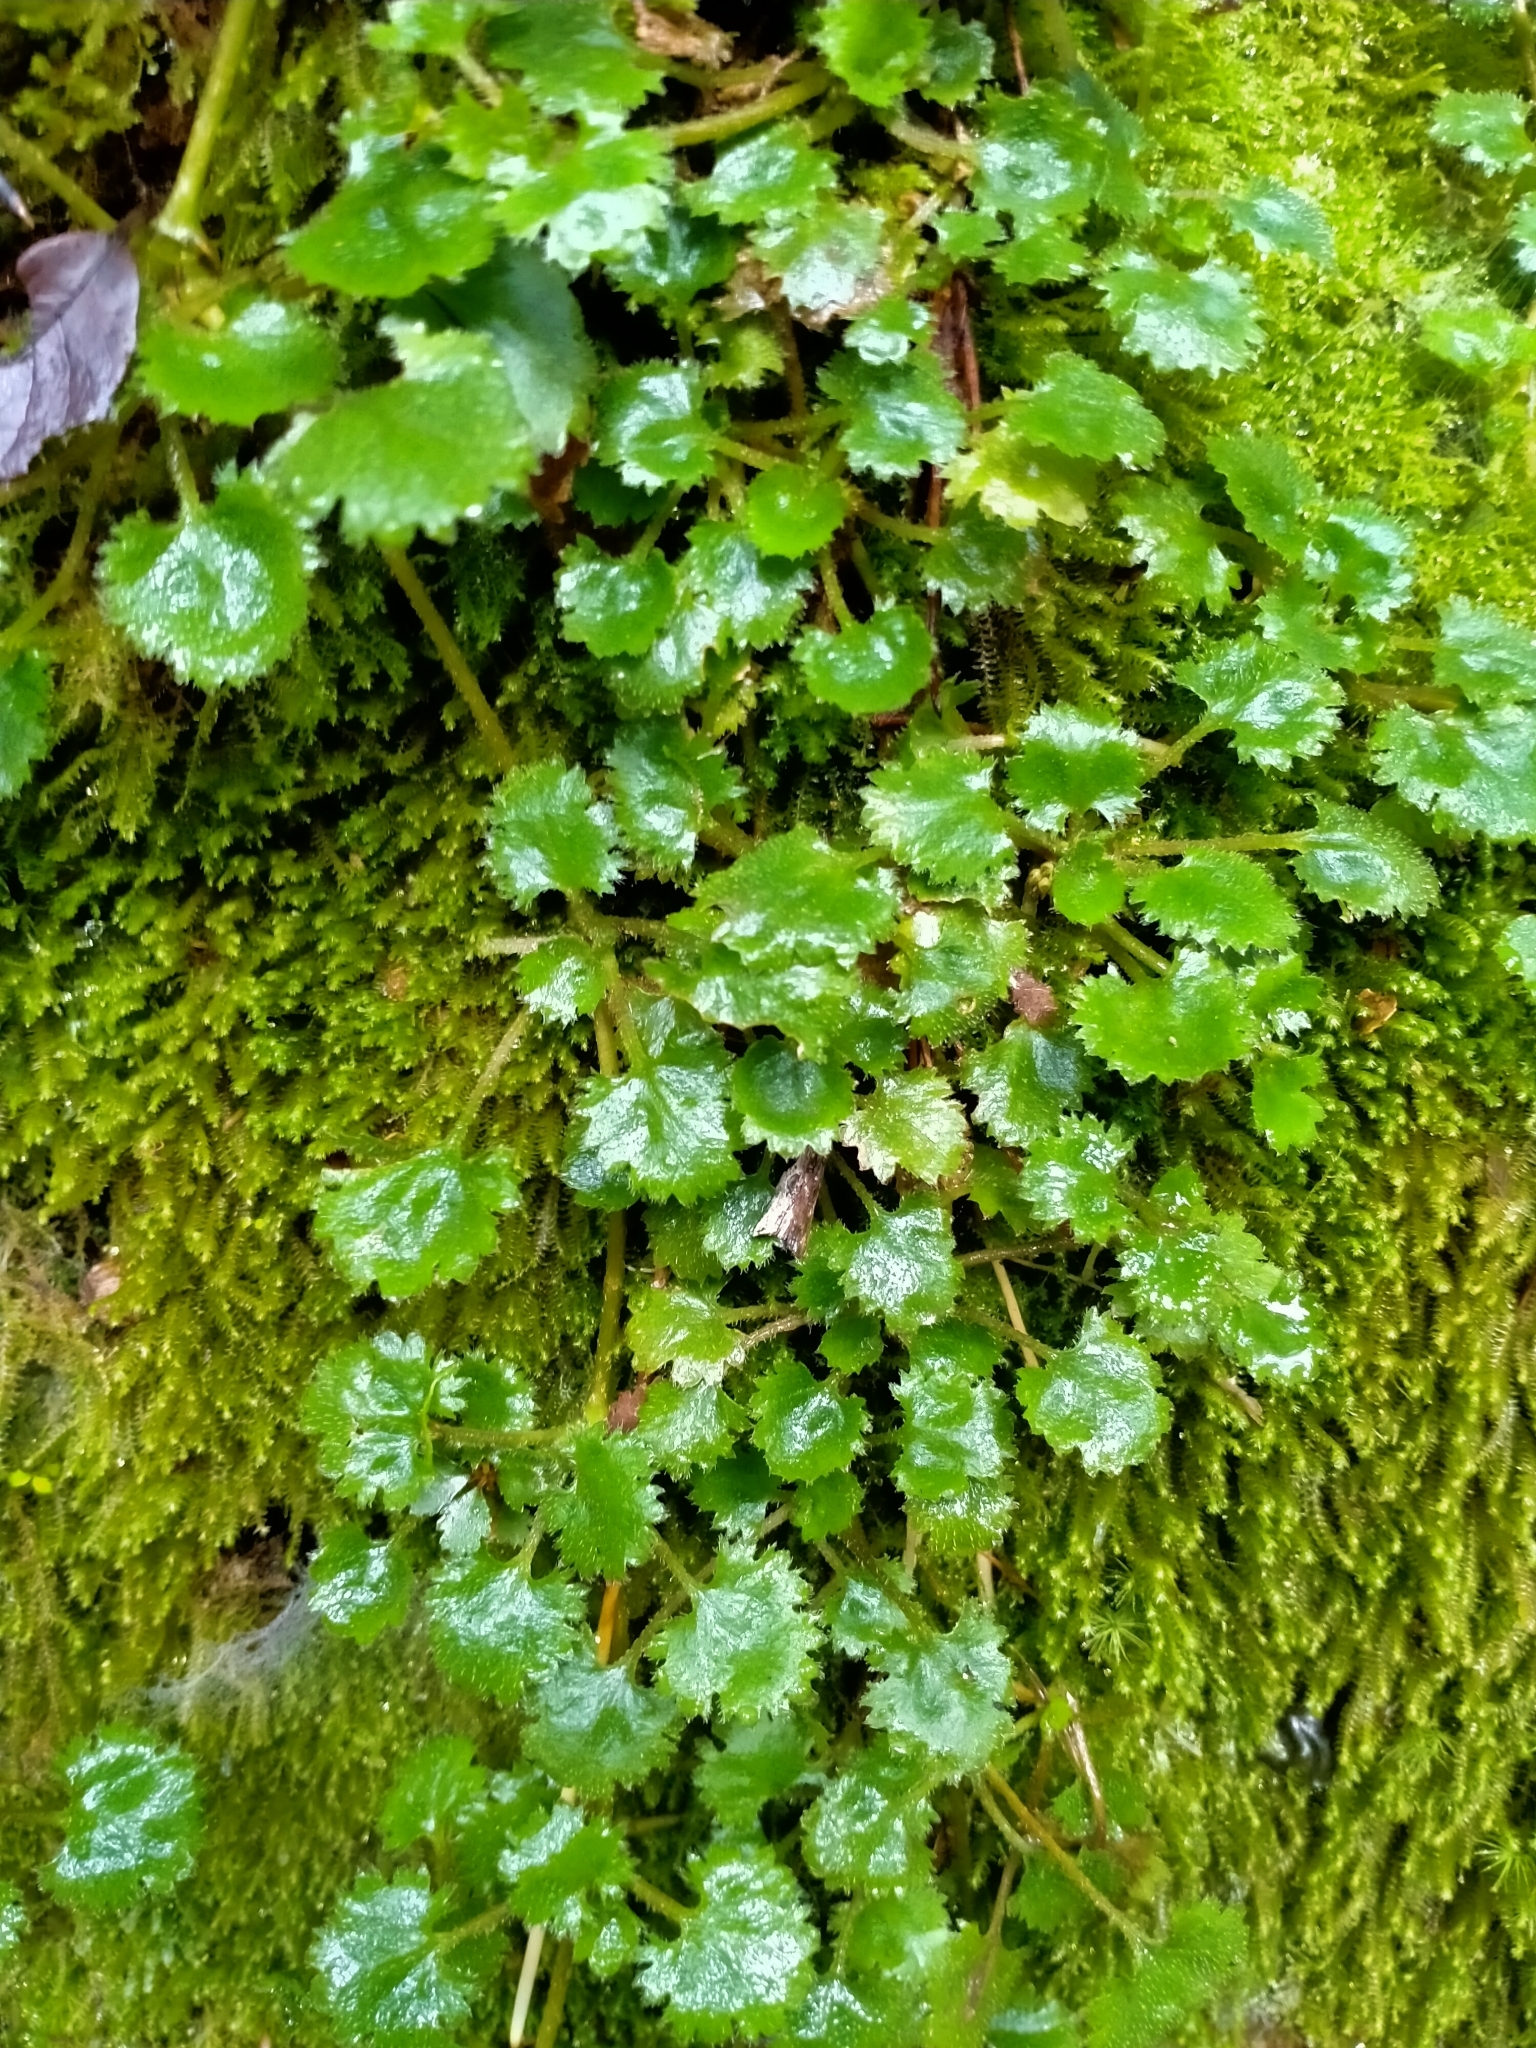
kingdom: Plantae
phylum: Tracheophyta
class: Magnoliopsida
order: Gunnerales
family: Gunneraceae
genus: Gunnera
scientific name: Gunnera monoica
